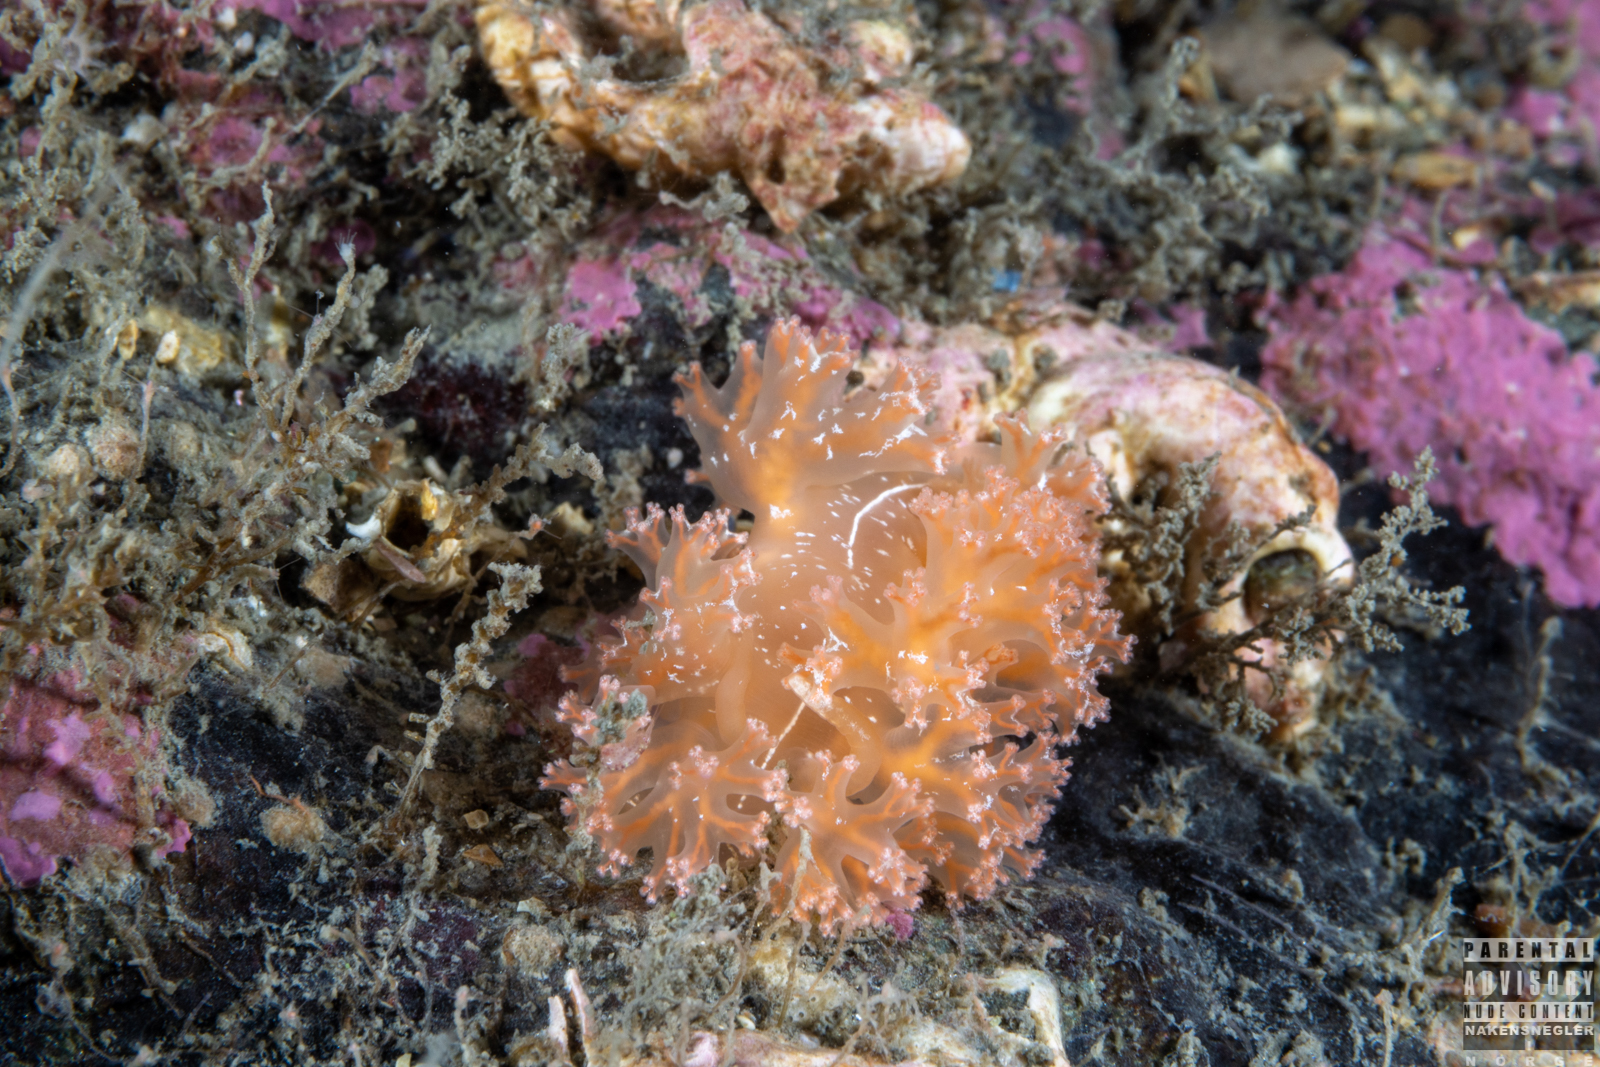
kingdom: Animalia
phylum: Mollusca
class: Gastropoda
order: Nudibranchia
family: Heroidae
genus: Hero
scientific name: Hero formosa
